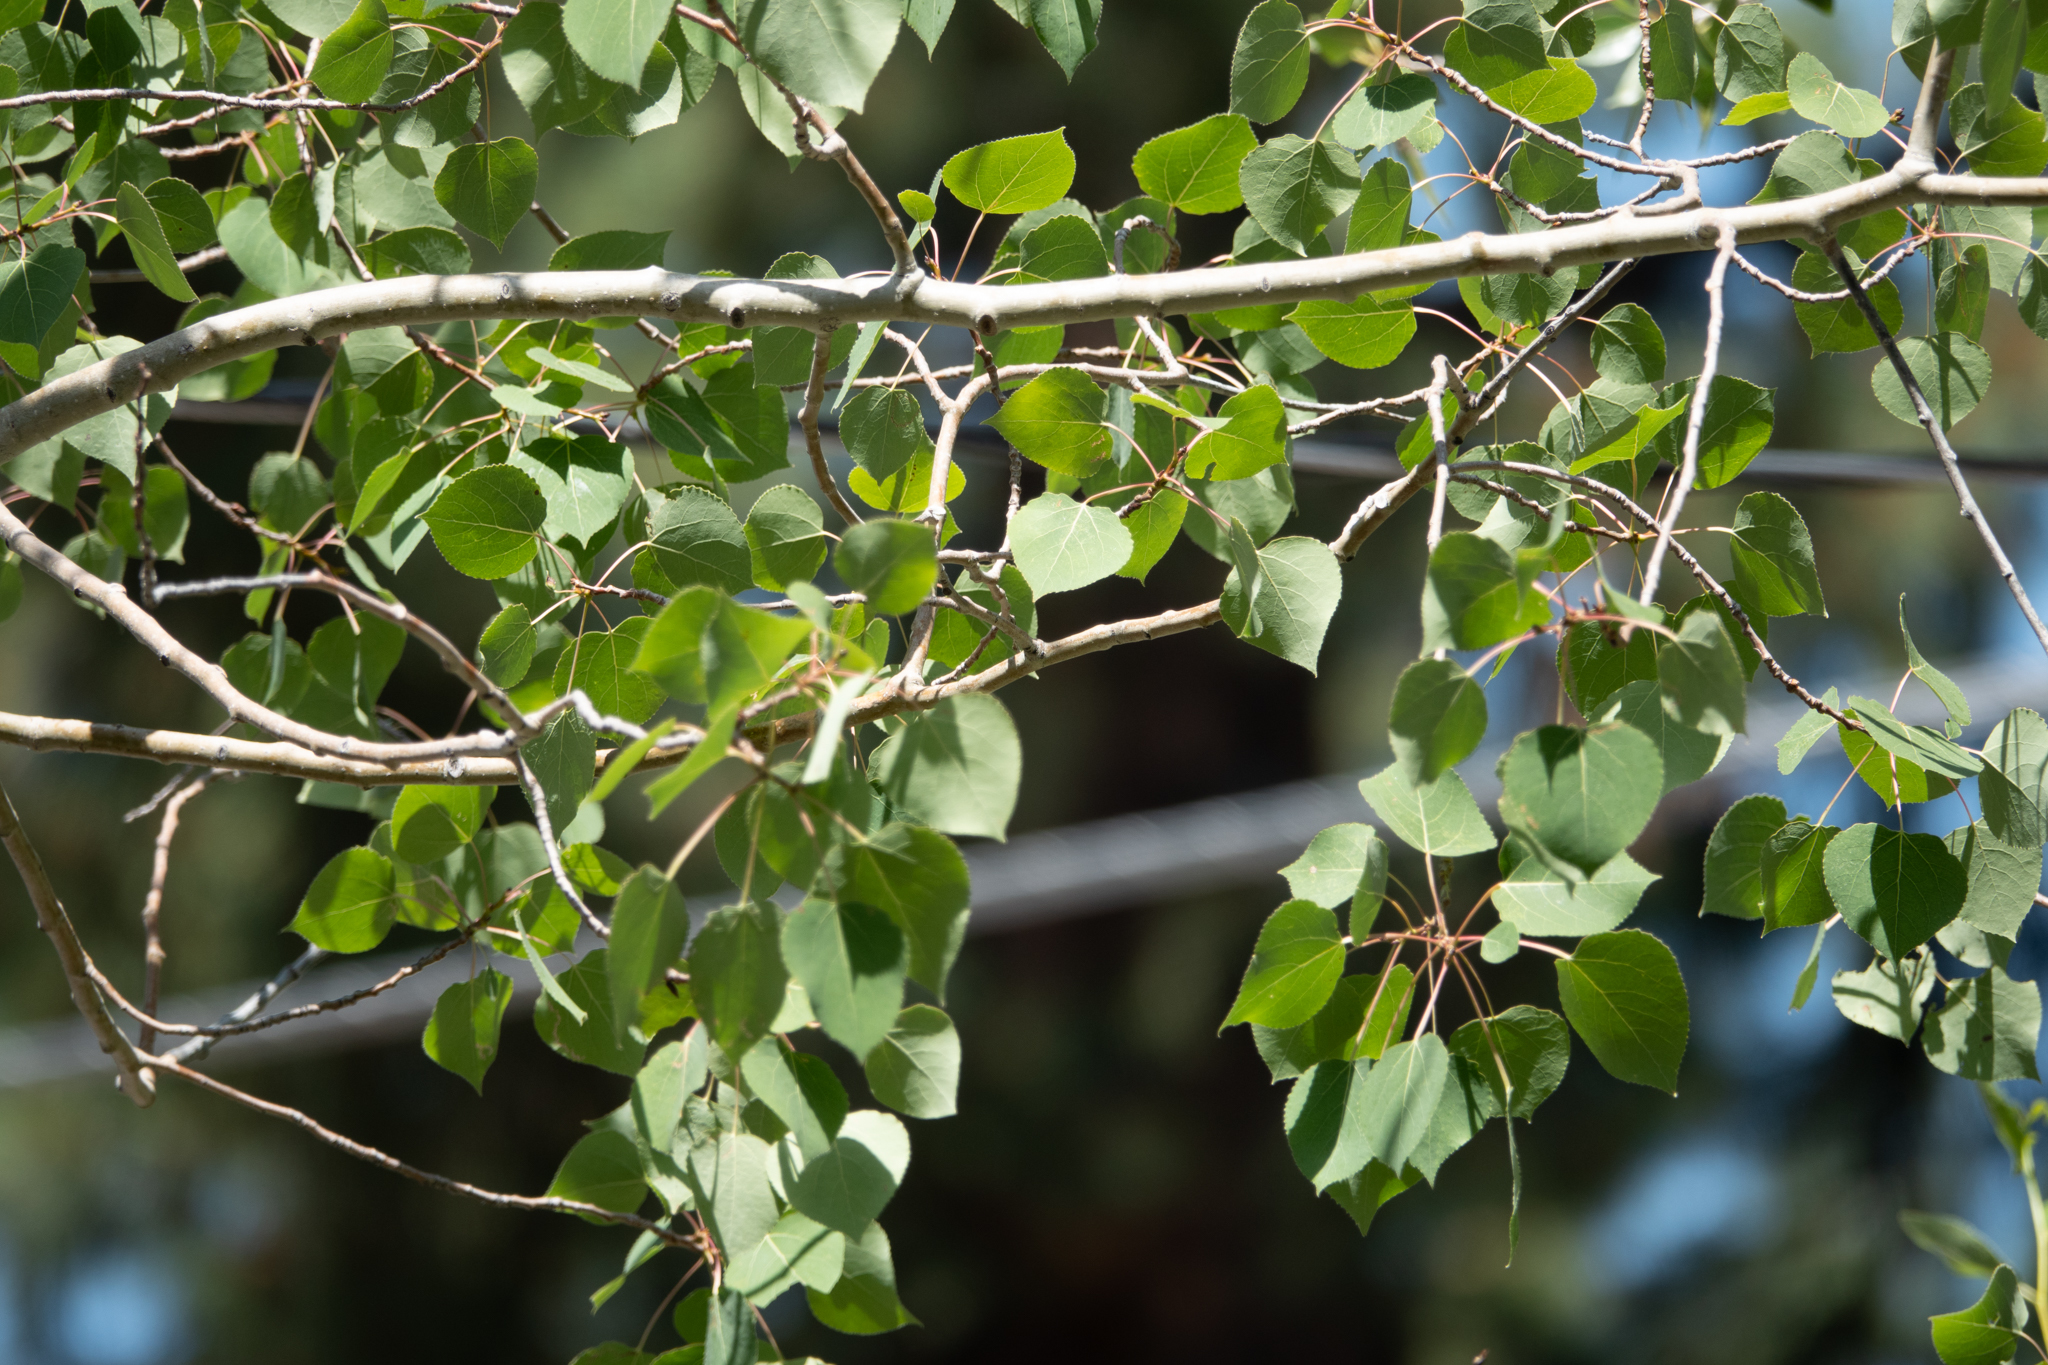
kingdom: Plantae
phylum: Tracheophyta
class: Magnoliopsida
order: Malpighiales
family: Salicaceae
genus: Populus
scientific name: Populus tremuloides
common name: Quaking aspen
